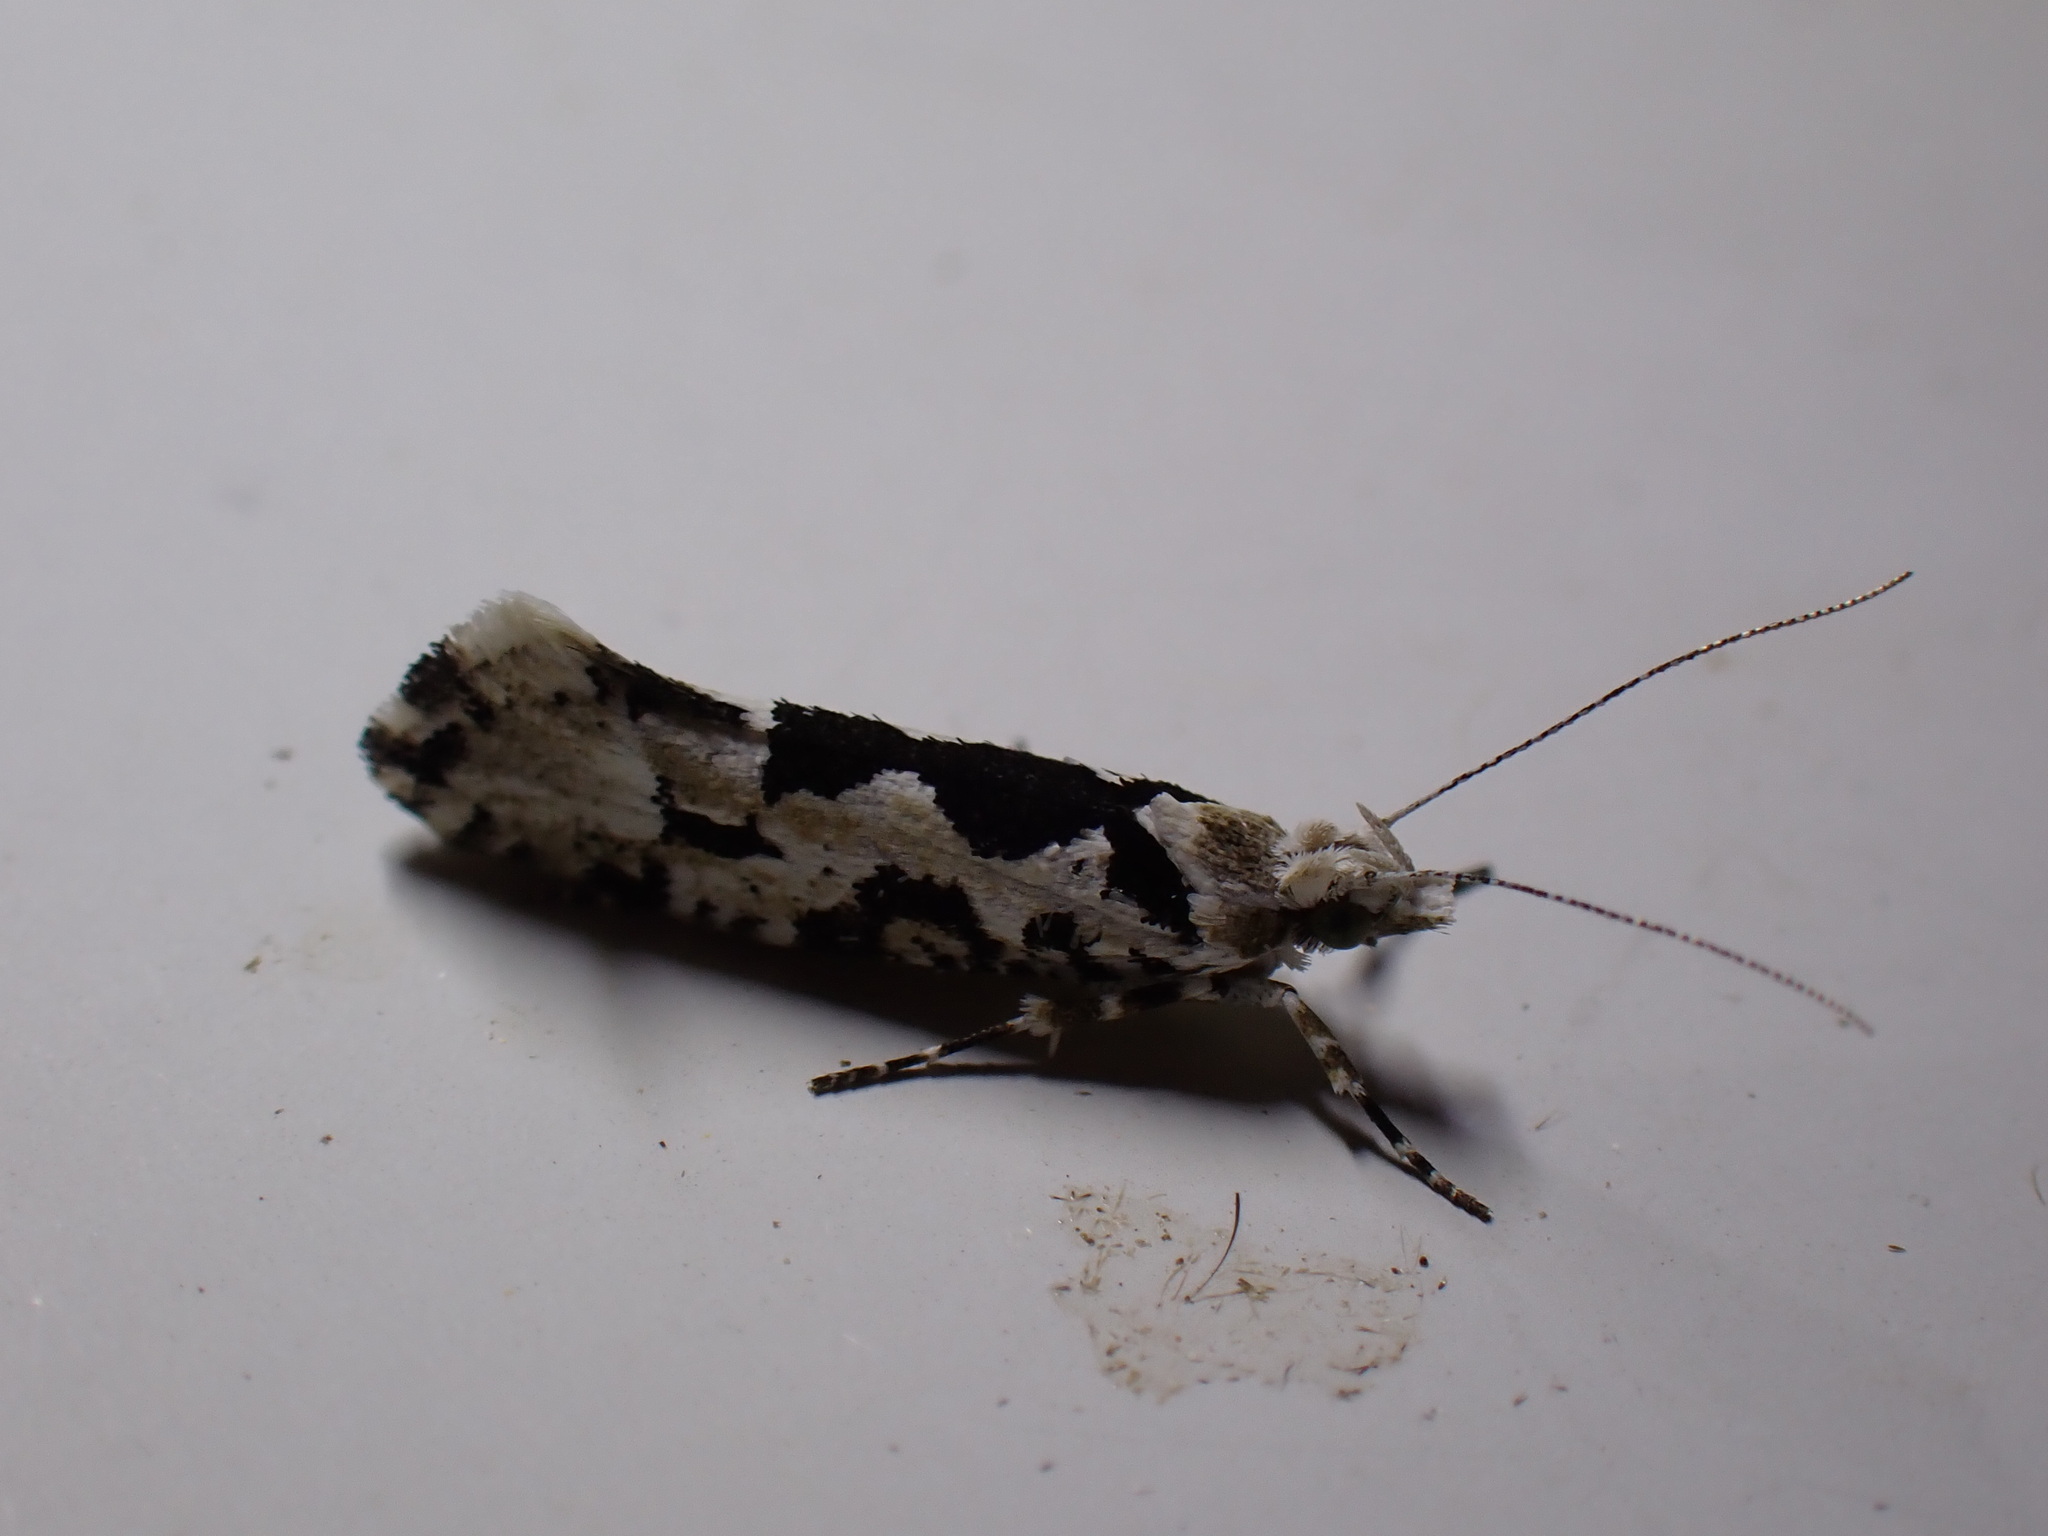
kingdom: Animalia
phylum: Arthropoda
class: Insecta
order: Lepidoptera
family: Plutellidae
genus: Ypsolophus
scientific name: Ypsolophus sequella
